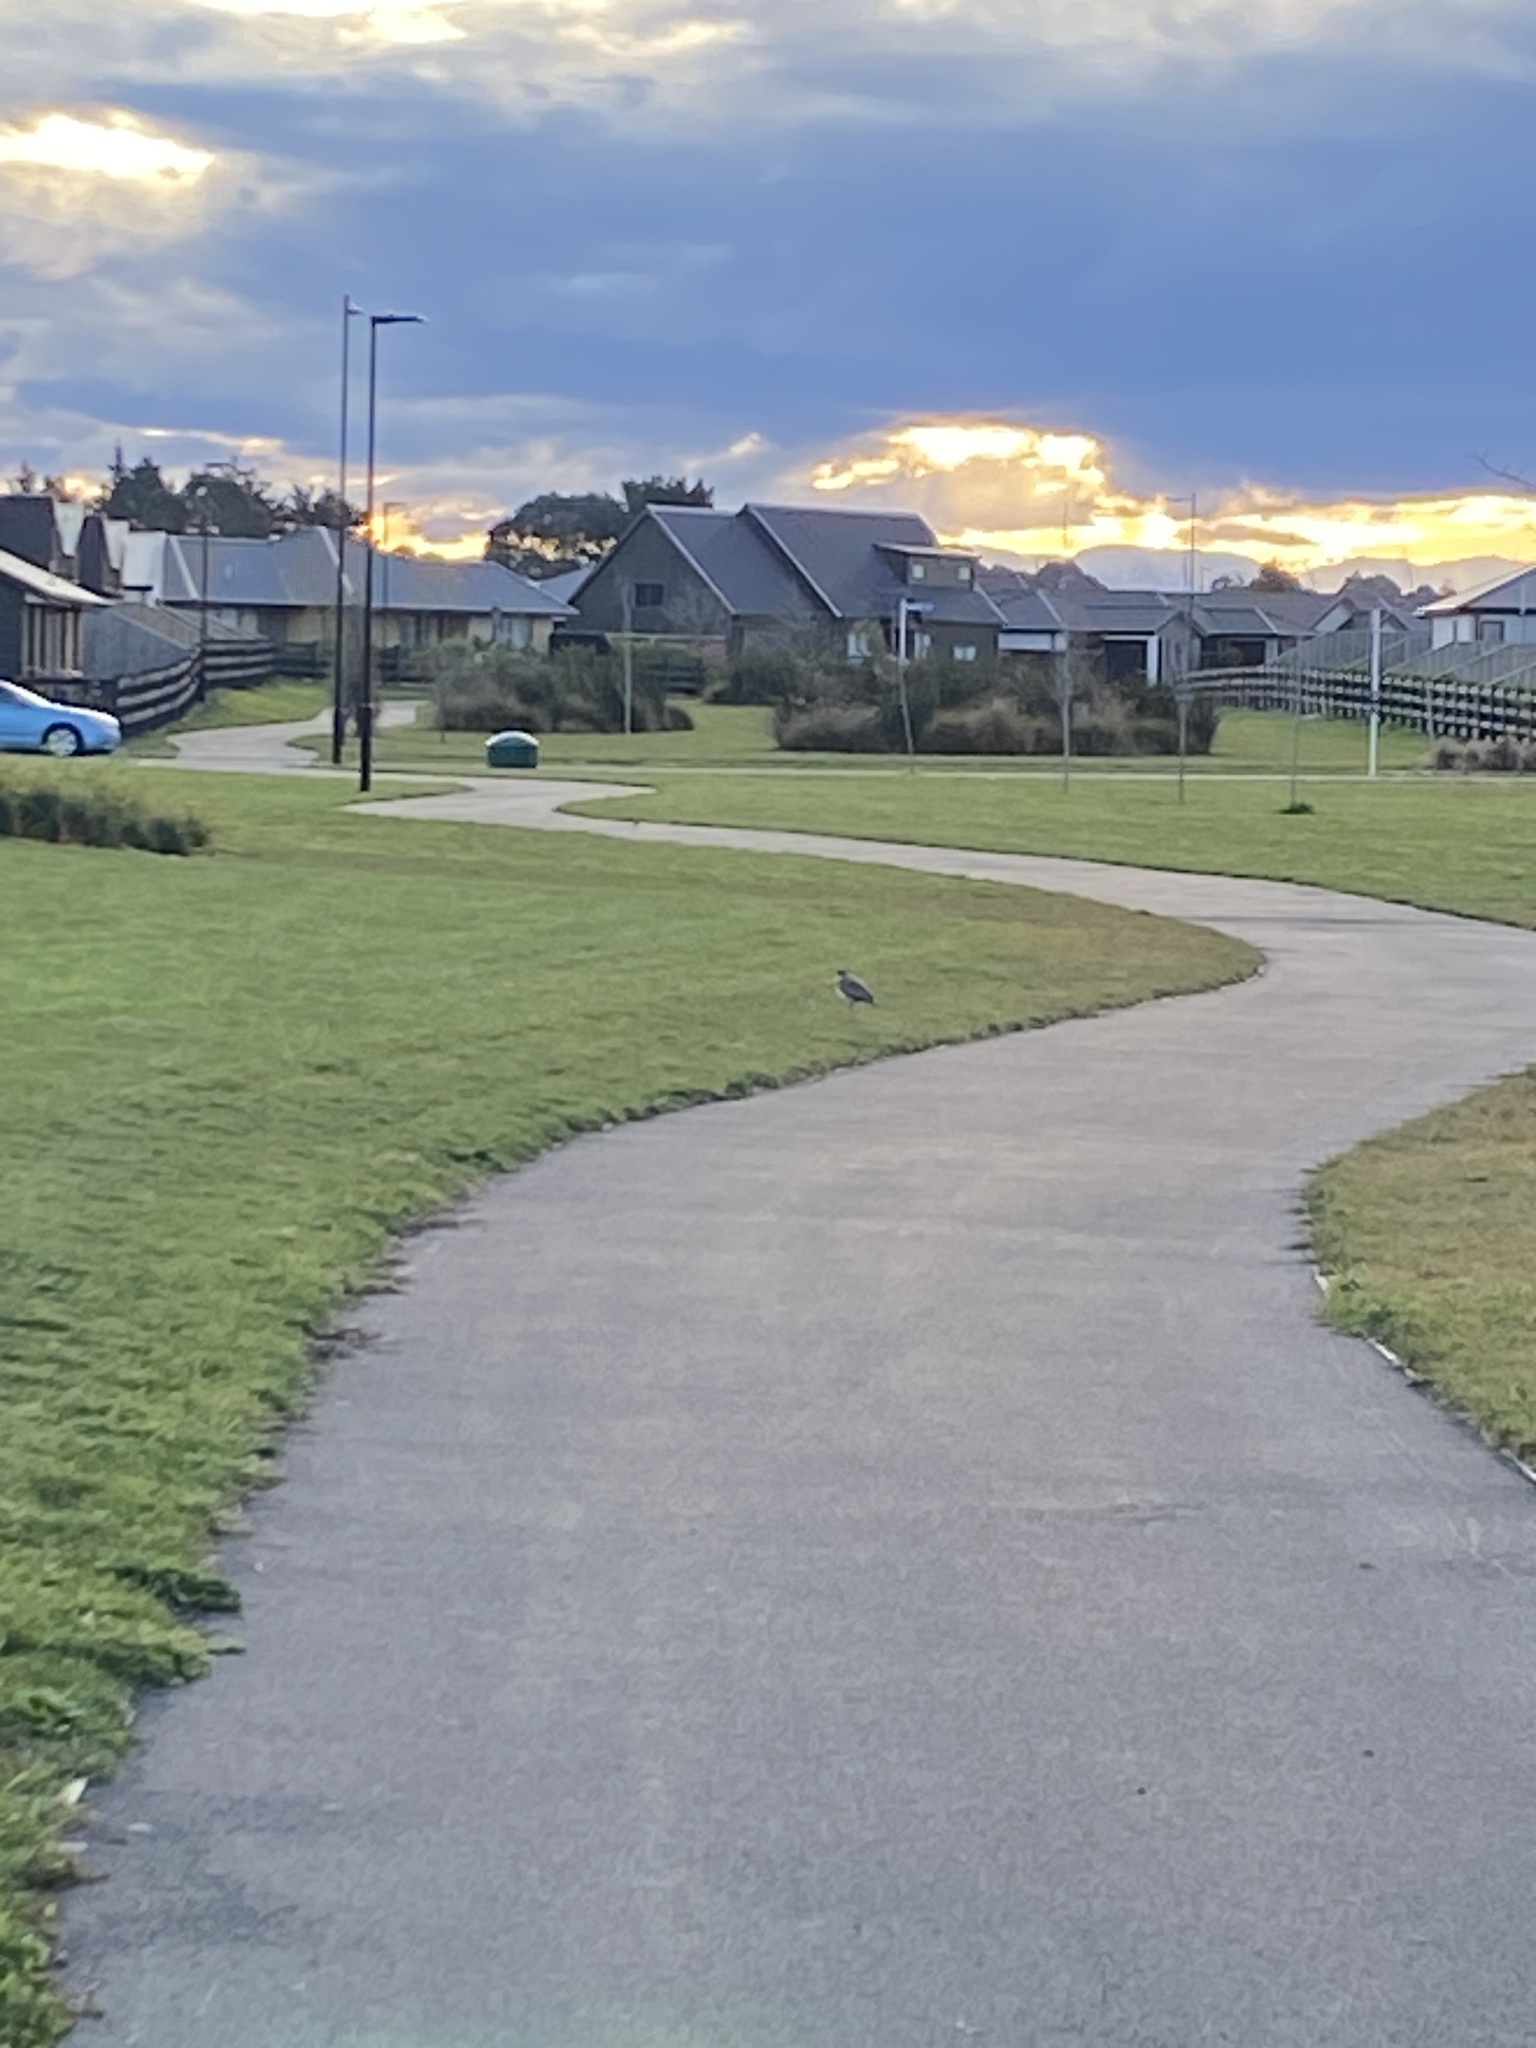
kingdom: Animalia
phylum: Chordata
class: Aves
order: Charadriiformes
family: Charadriidae
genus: Vanellus
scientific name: Vanellus miles
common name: Masked lapwing
